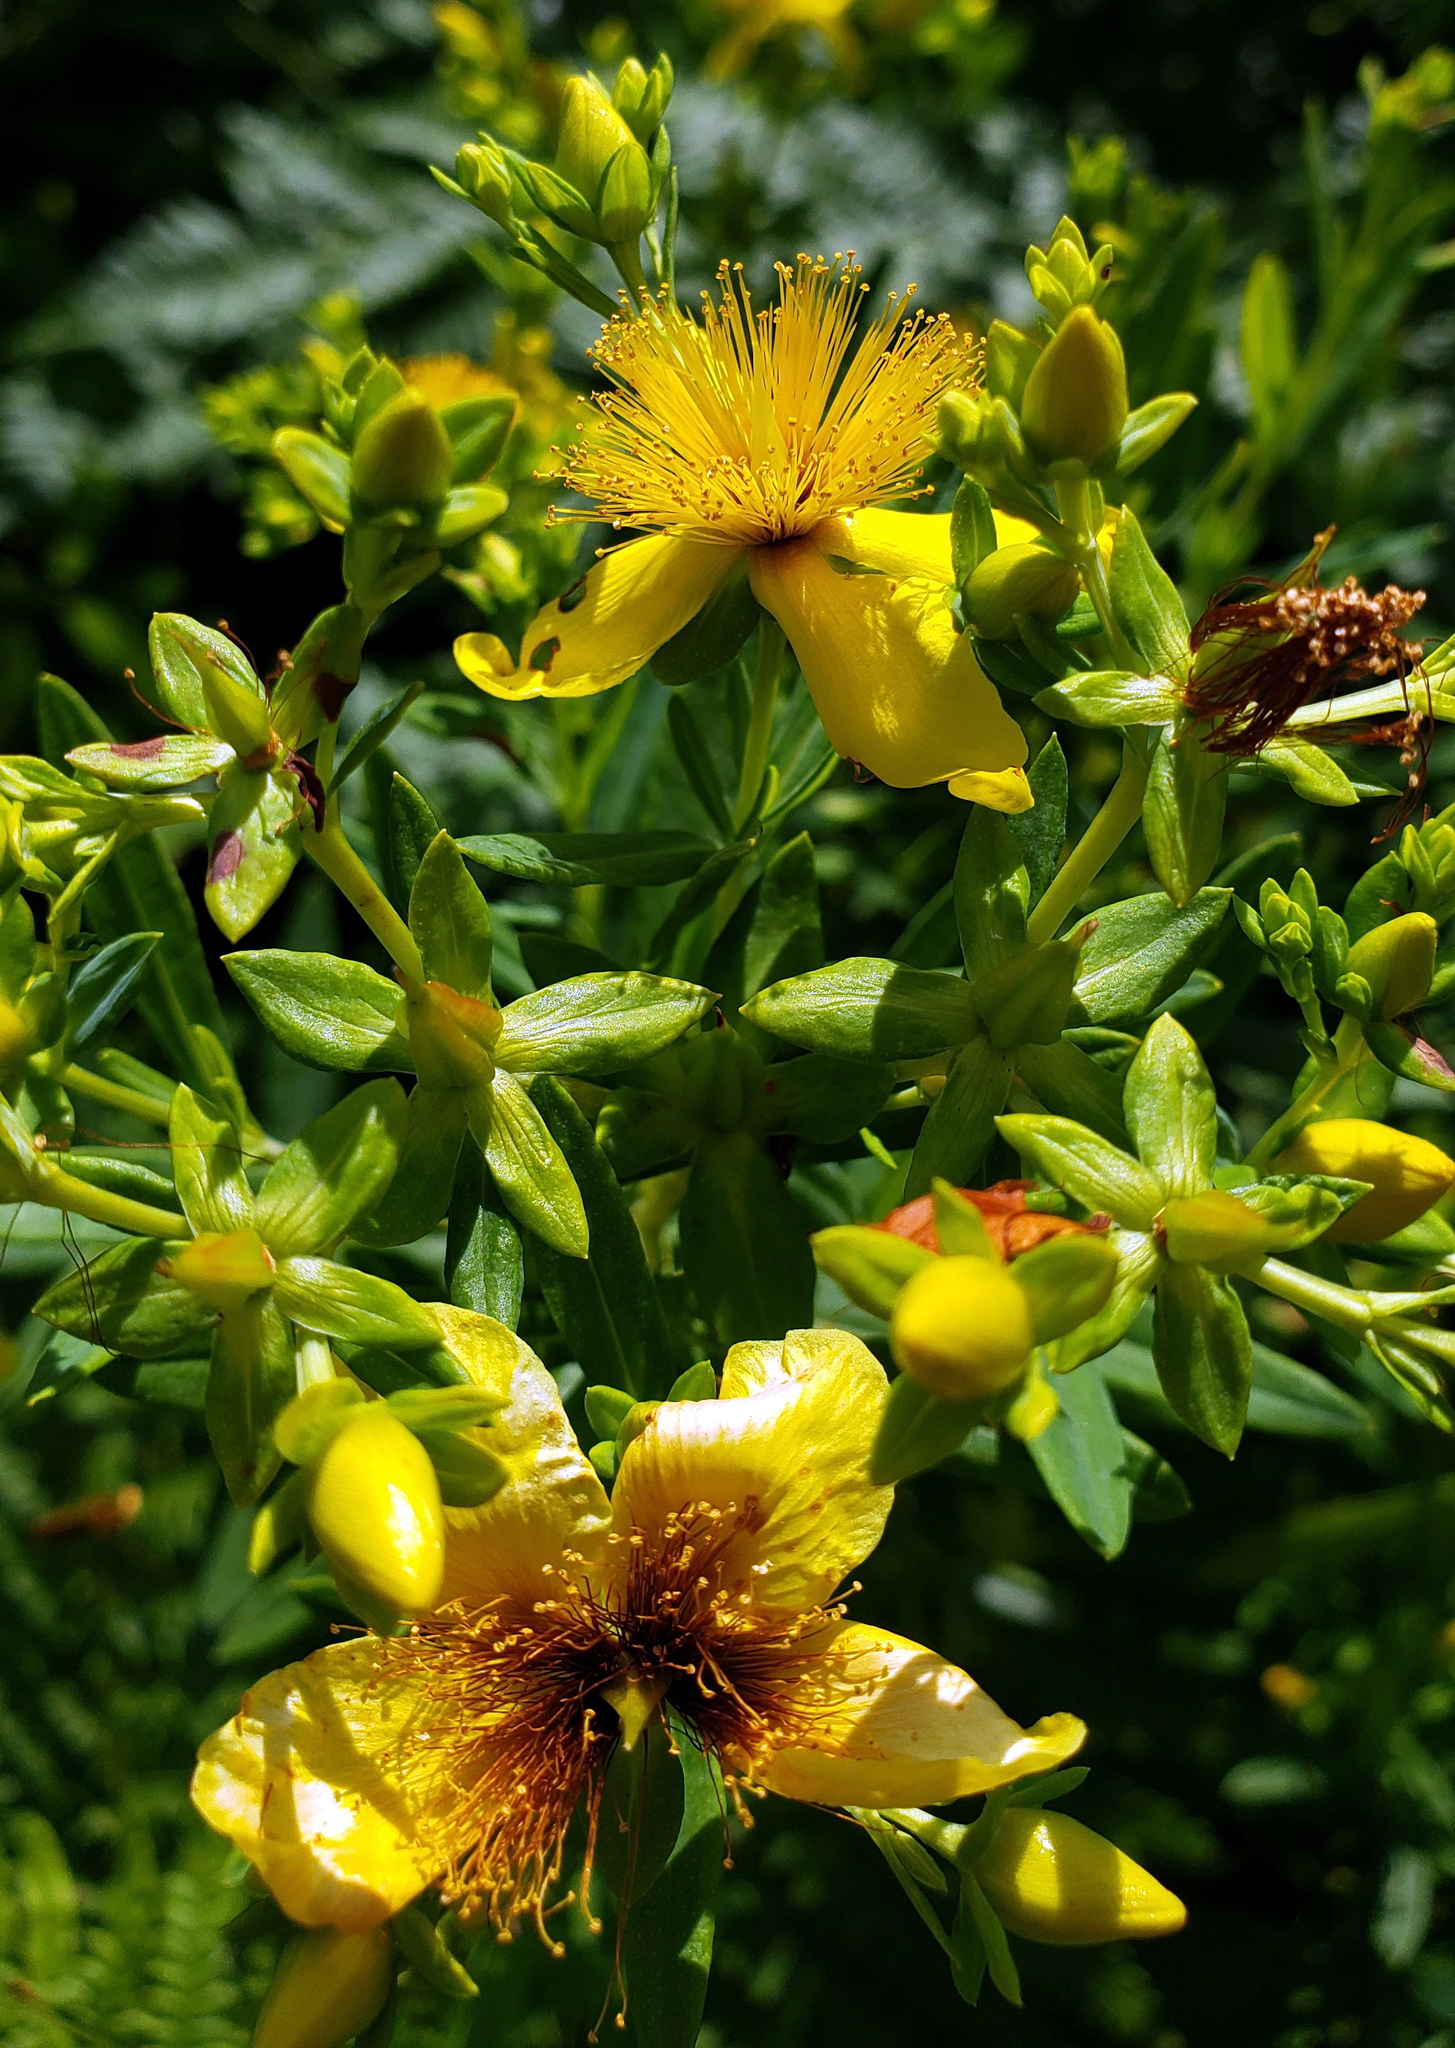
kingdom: Plantae
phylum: Tracheophyta
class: Magnoliopsida
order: Malpighiales
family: Hypericaceae
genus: Hypericum
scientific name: Hypericum kalmianum
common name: Kalm's st. john's-wort
